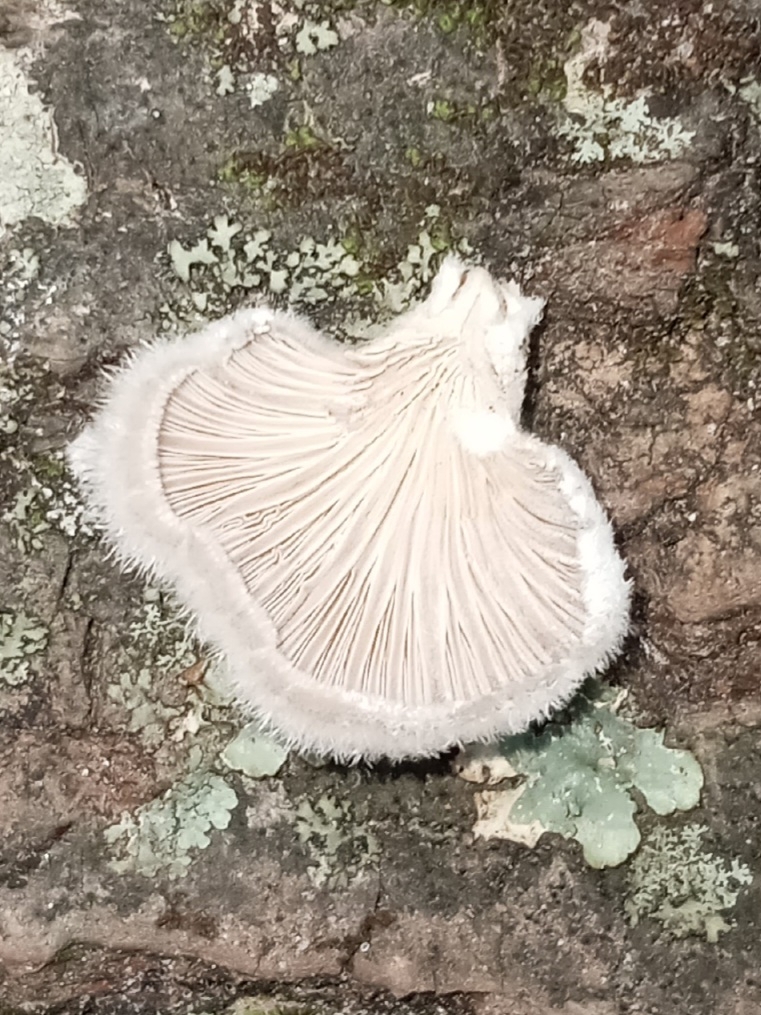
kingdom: Fungi
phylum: Basidiomycota
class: Agaricomycetes
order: Agaricales
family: Schizophyllaceae
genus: Schizophyllum
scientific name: Schizophyllum commune
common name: Common porecrust
